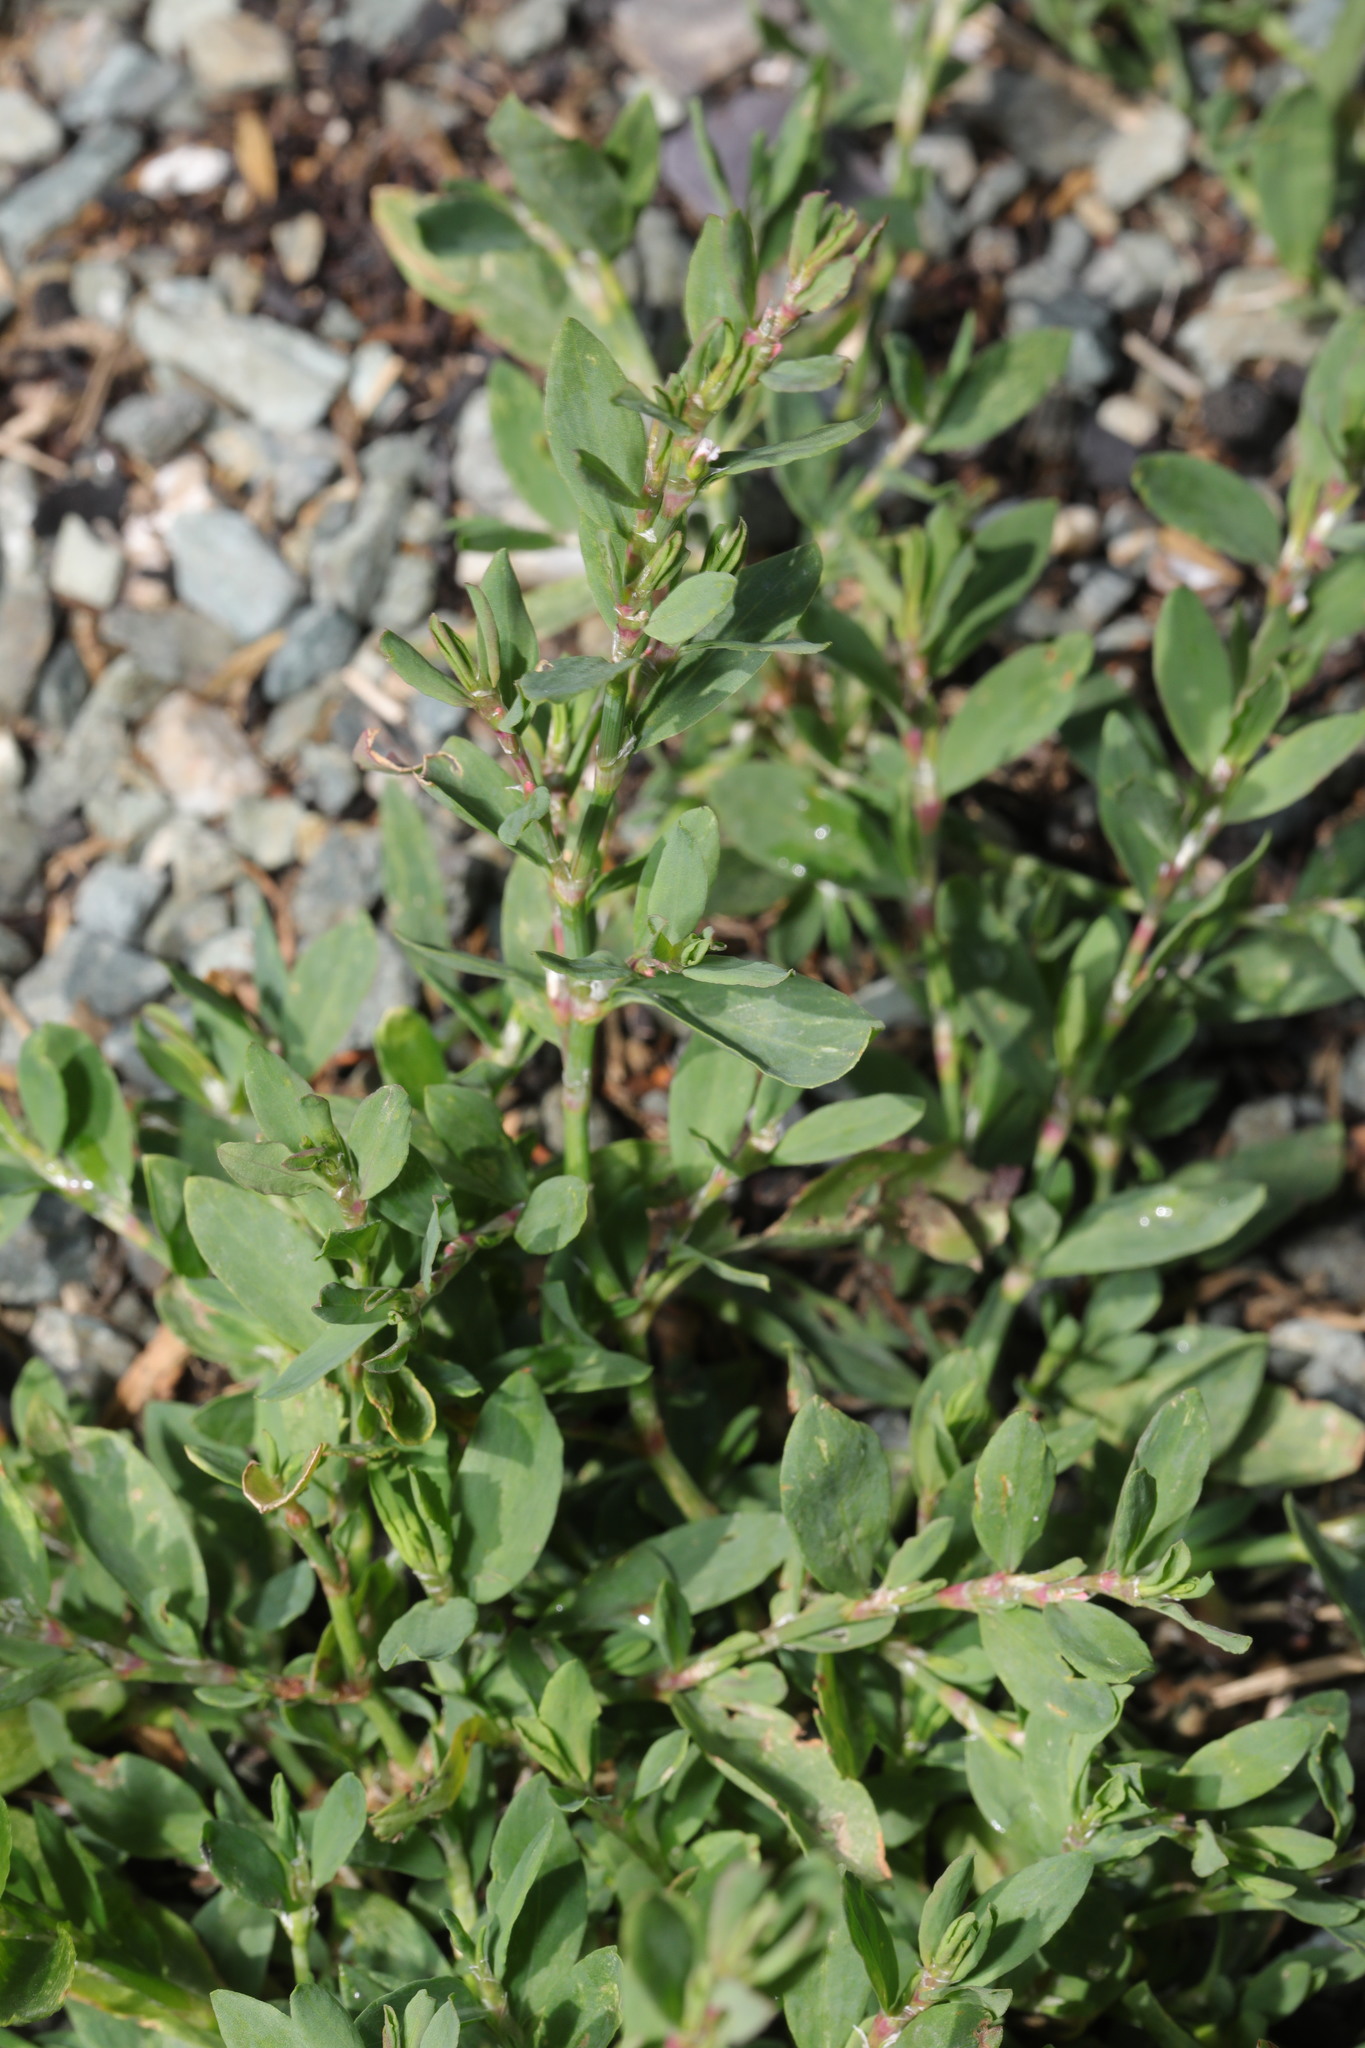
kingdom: Plantae
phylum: Tracheophyta
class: Magnoliopsida
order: Caryophyllales
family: Polygonaceae
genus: Polygonum
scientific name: Polygonum arenastrum
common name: Equal-leaved knotgrass
